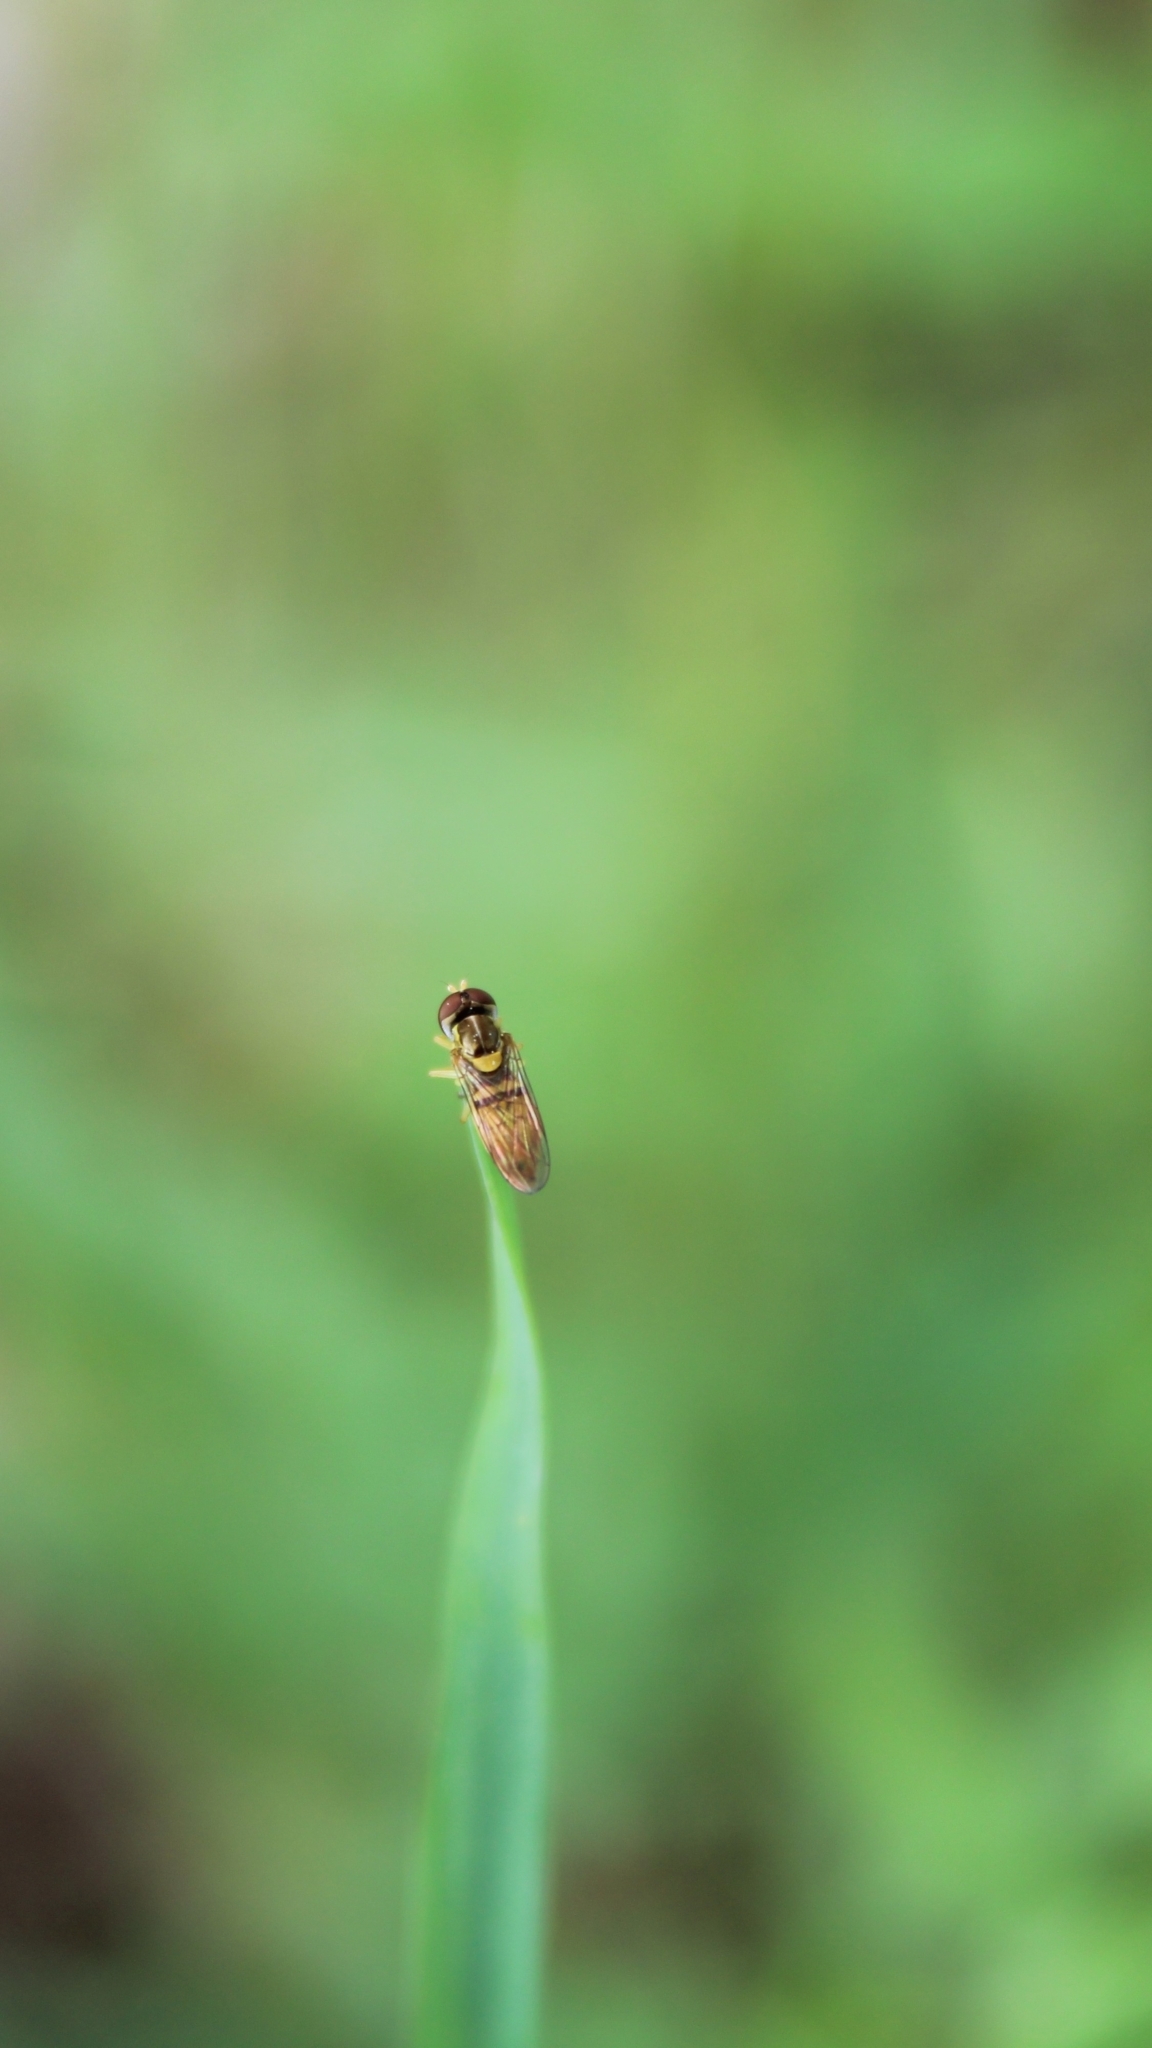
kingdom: Animalia
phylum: Arthropoda
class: Insecta
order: Diptera
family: Syrphidae
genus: Toxomerus
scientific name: Toxomerus marginatus
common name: Syrphid fly
